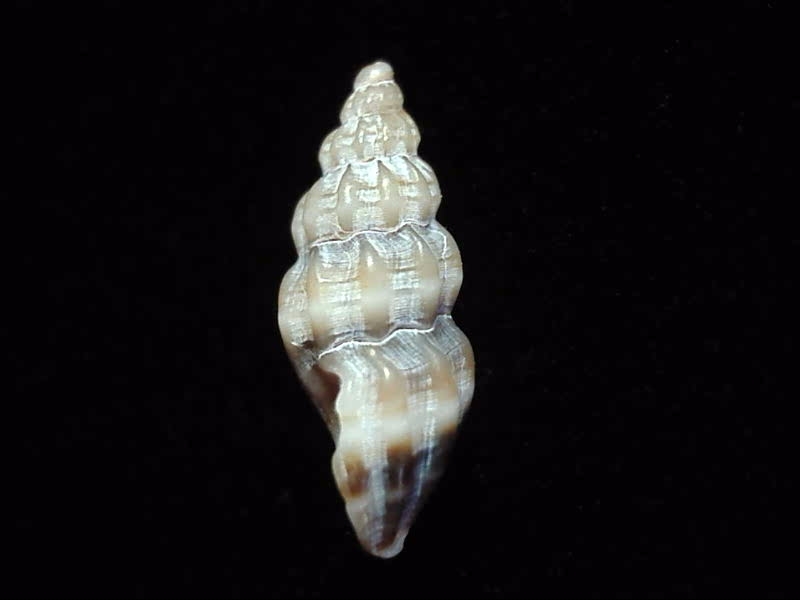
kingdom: Animalia
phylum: Mollusca
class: Gastropoda
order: Neogastropoda
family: Mangeliidae
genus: Neoguraleus
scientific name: Neoguraleus sinclairi
